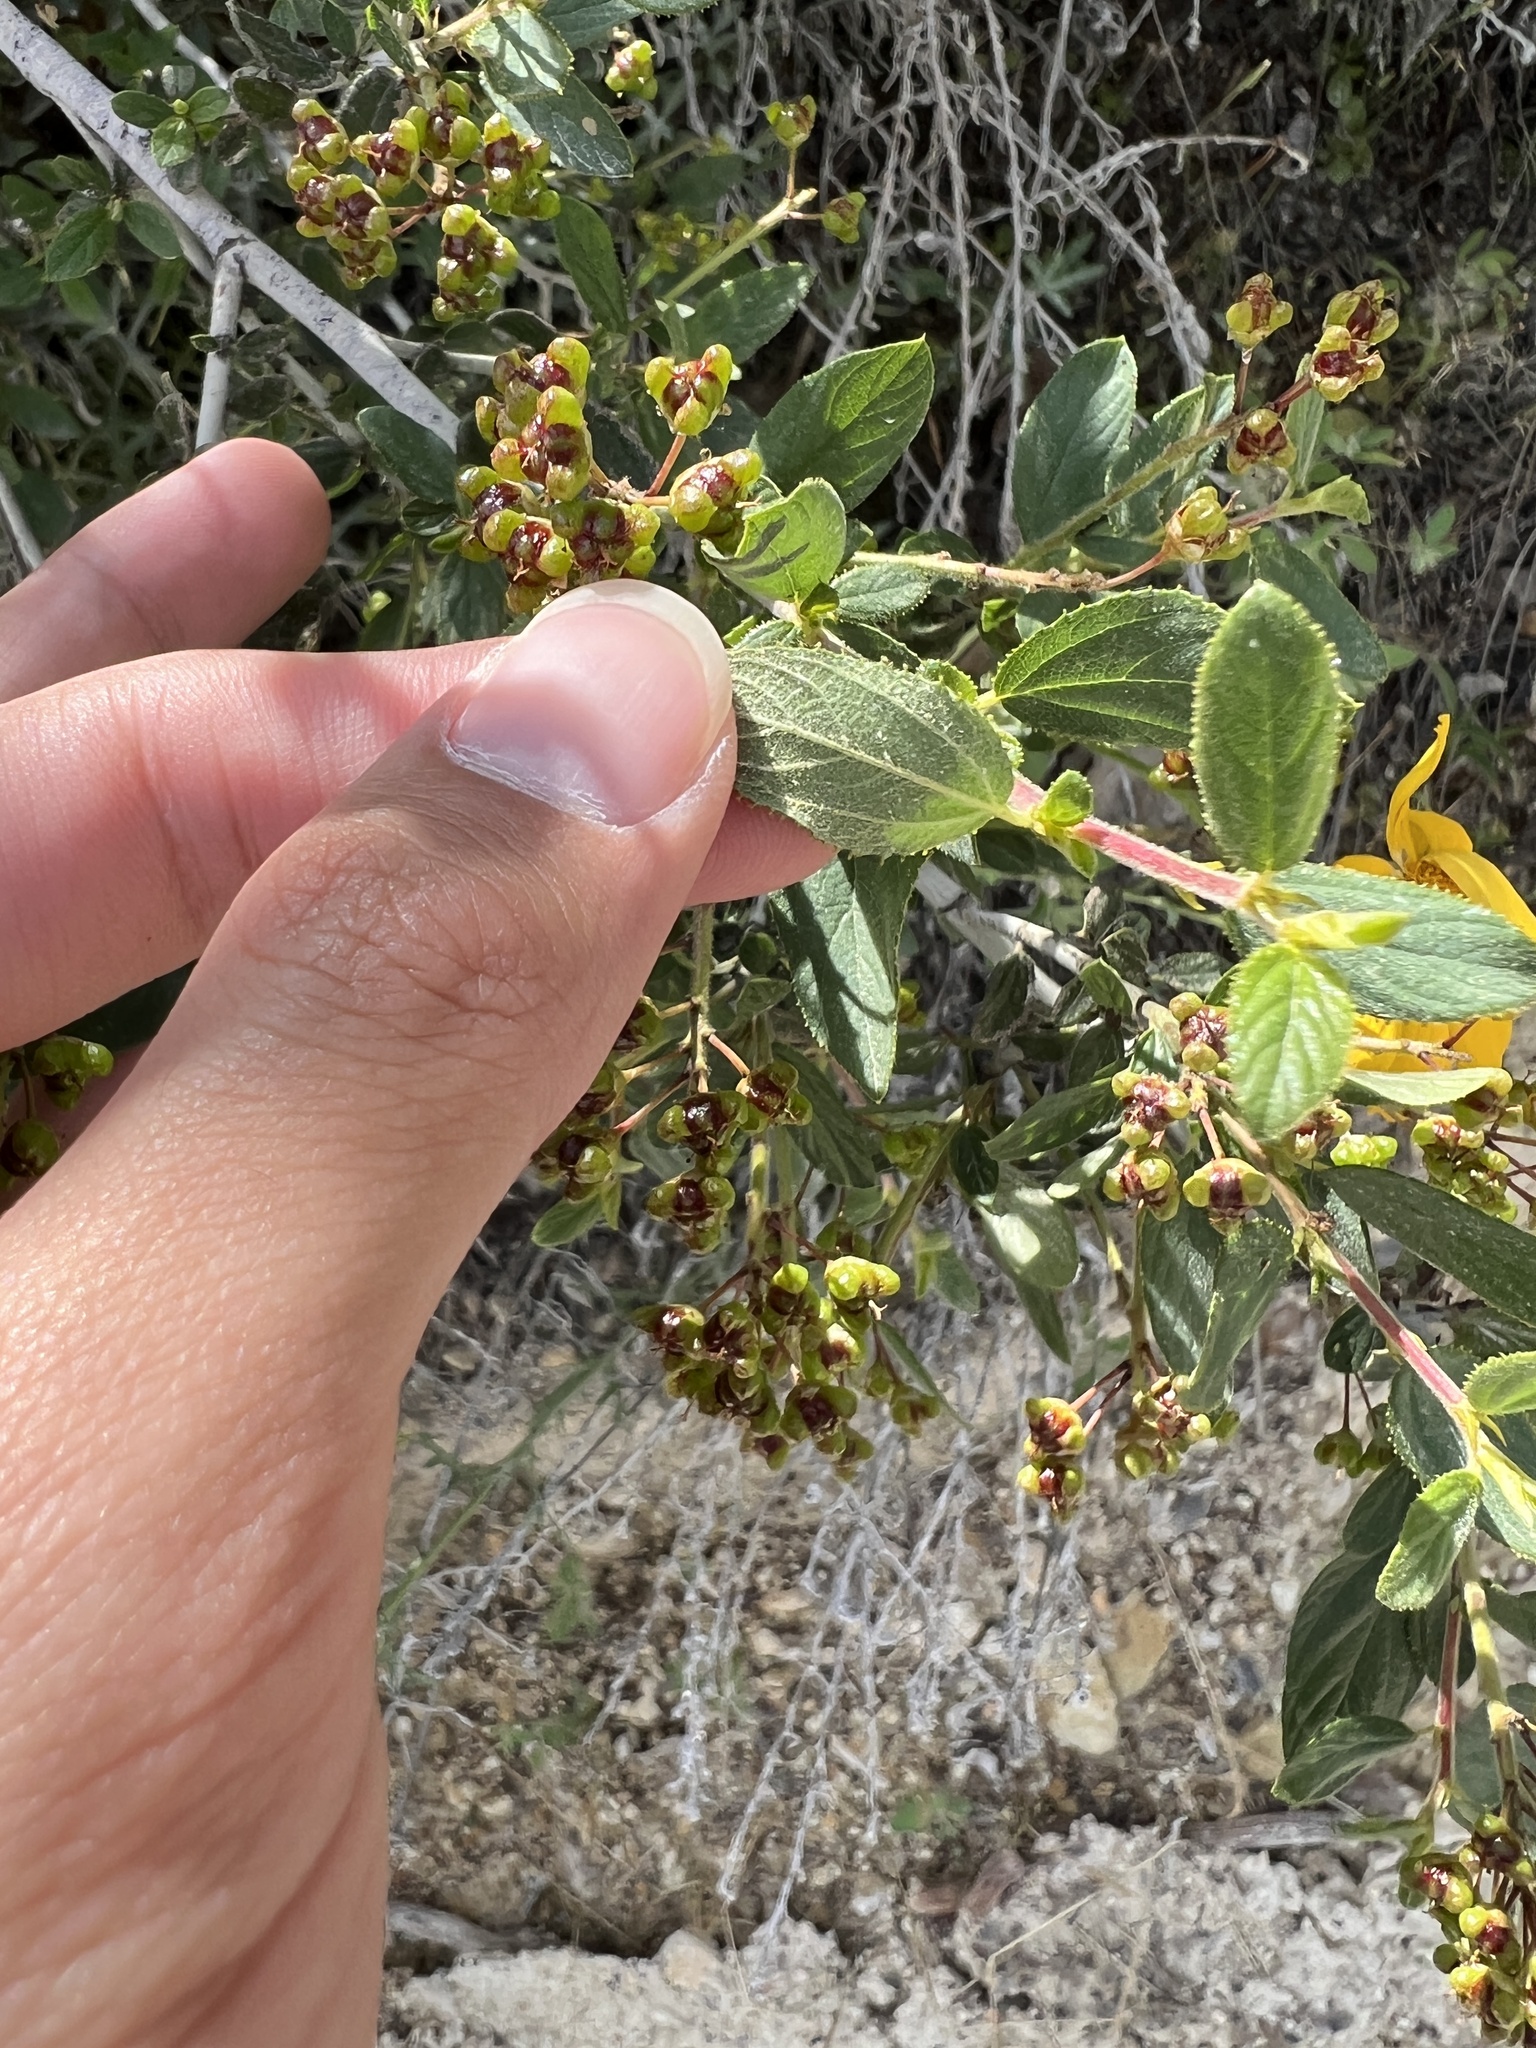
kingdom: Plantae
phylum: Tracheophyta
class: Magnoliopsida
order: Rosales
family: Rhamnaceae
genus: Ceanothus
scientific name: Ceanothus lemmonii
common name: Lemmon's ceanothus
